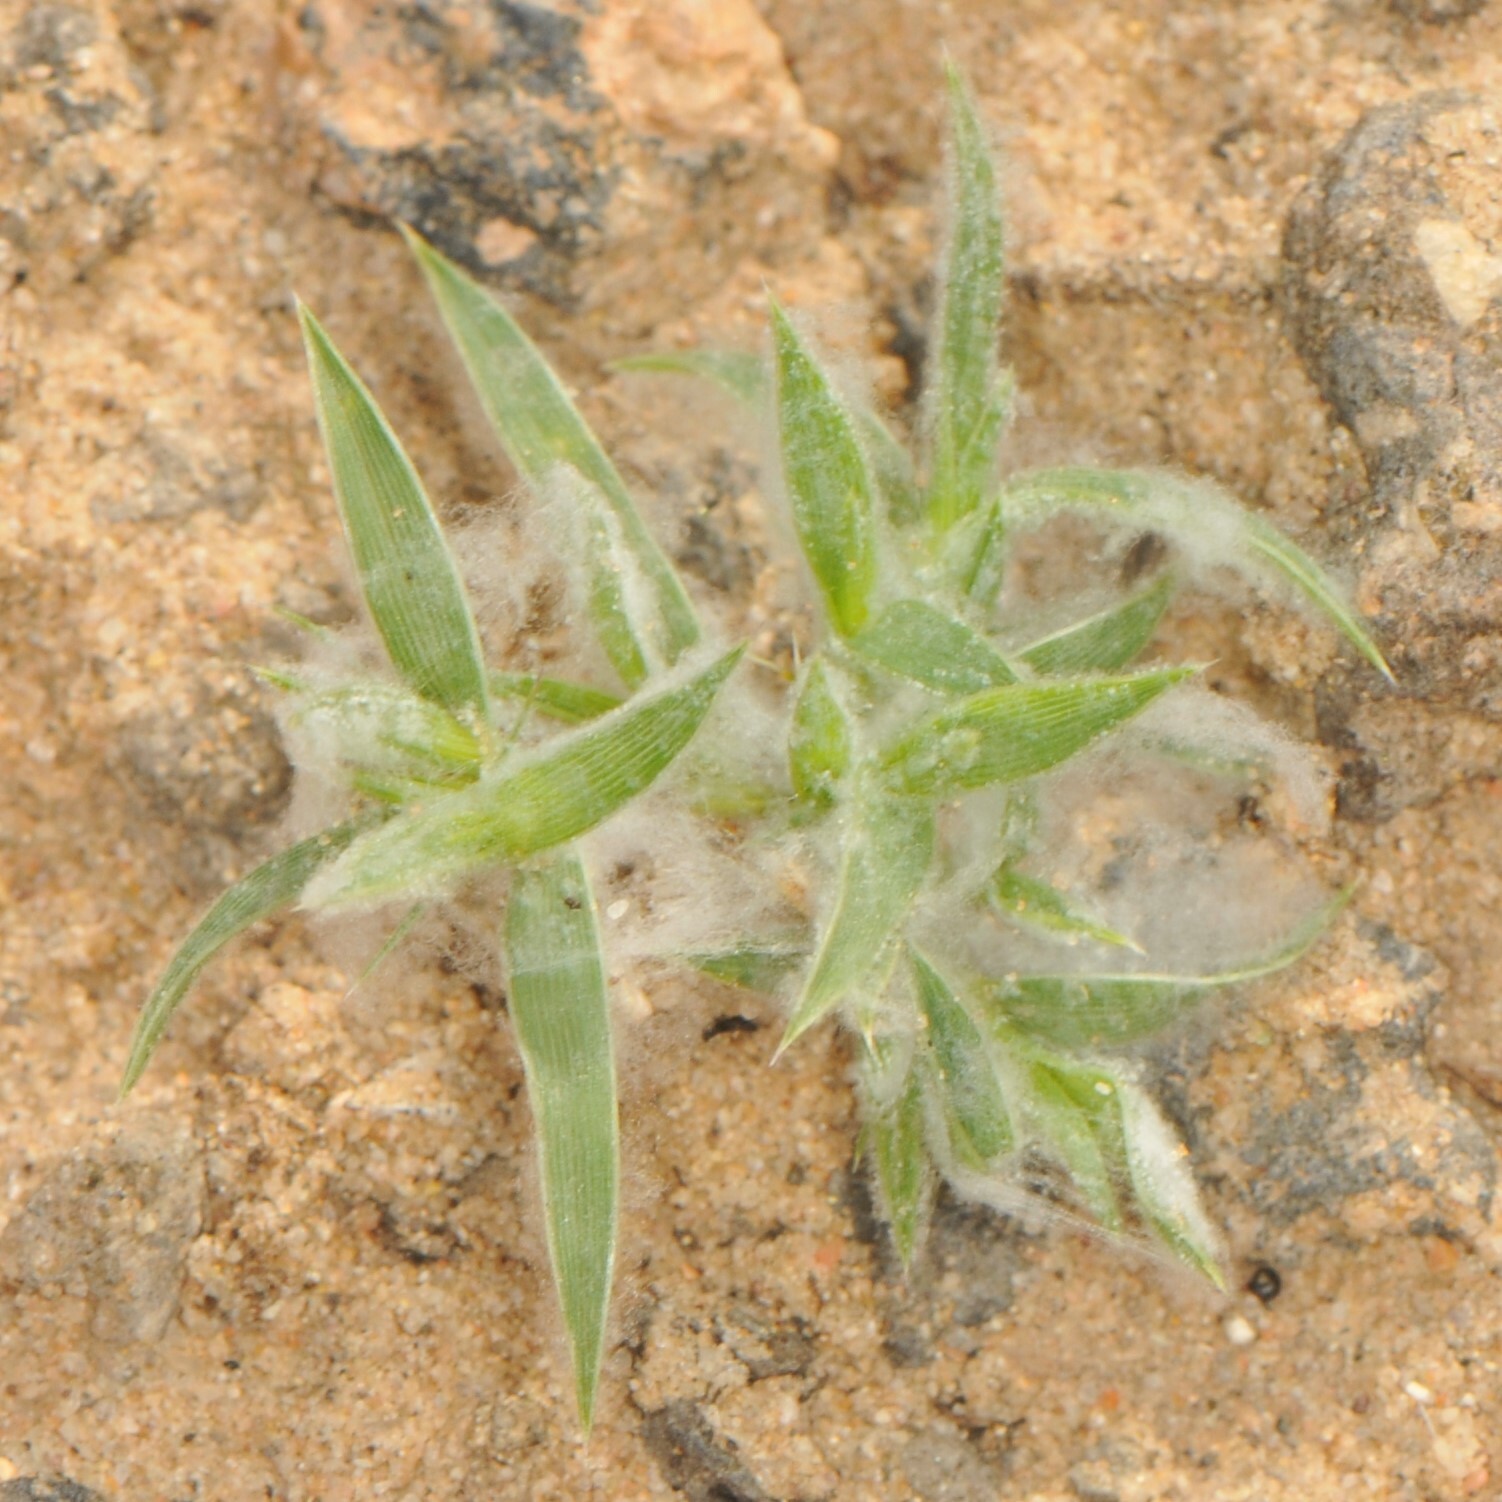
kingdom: Plantae
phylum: Tracheophyta
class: Liliopsida
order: Poales
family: Poaceae
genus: Munroa
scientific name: Munroa squarrosa
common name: False buffalo grass
